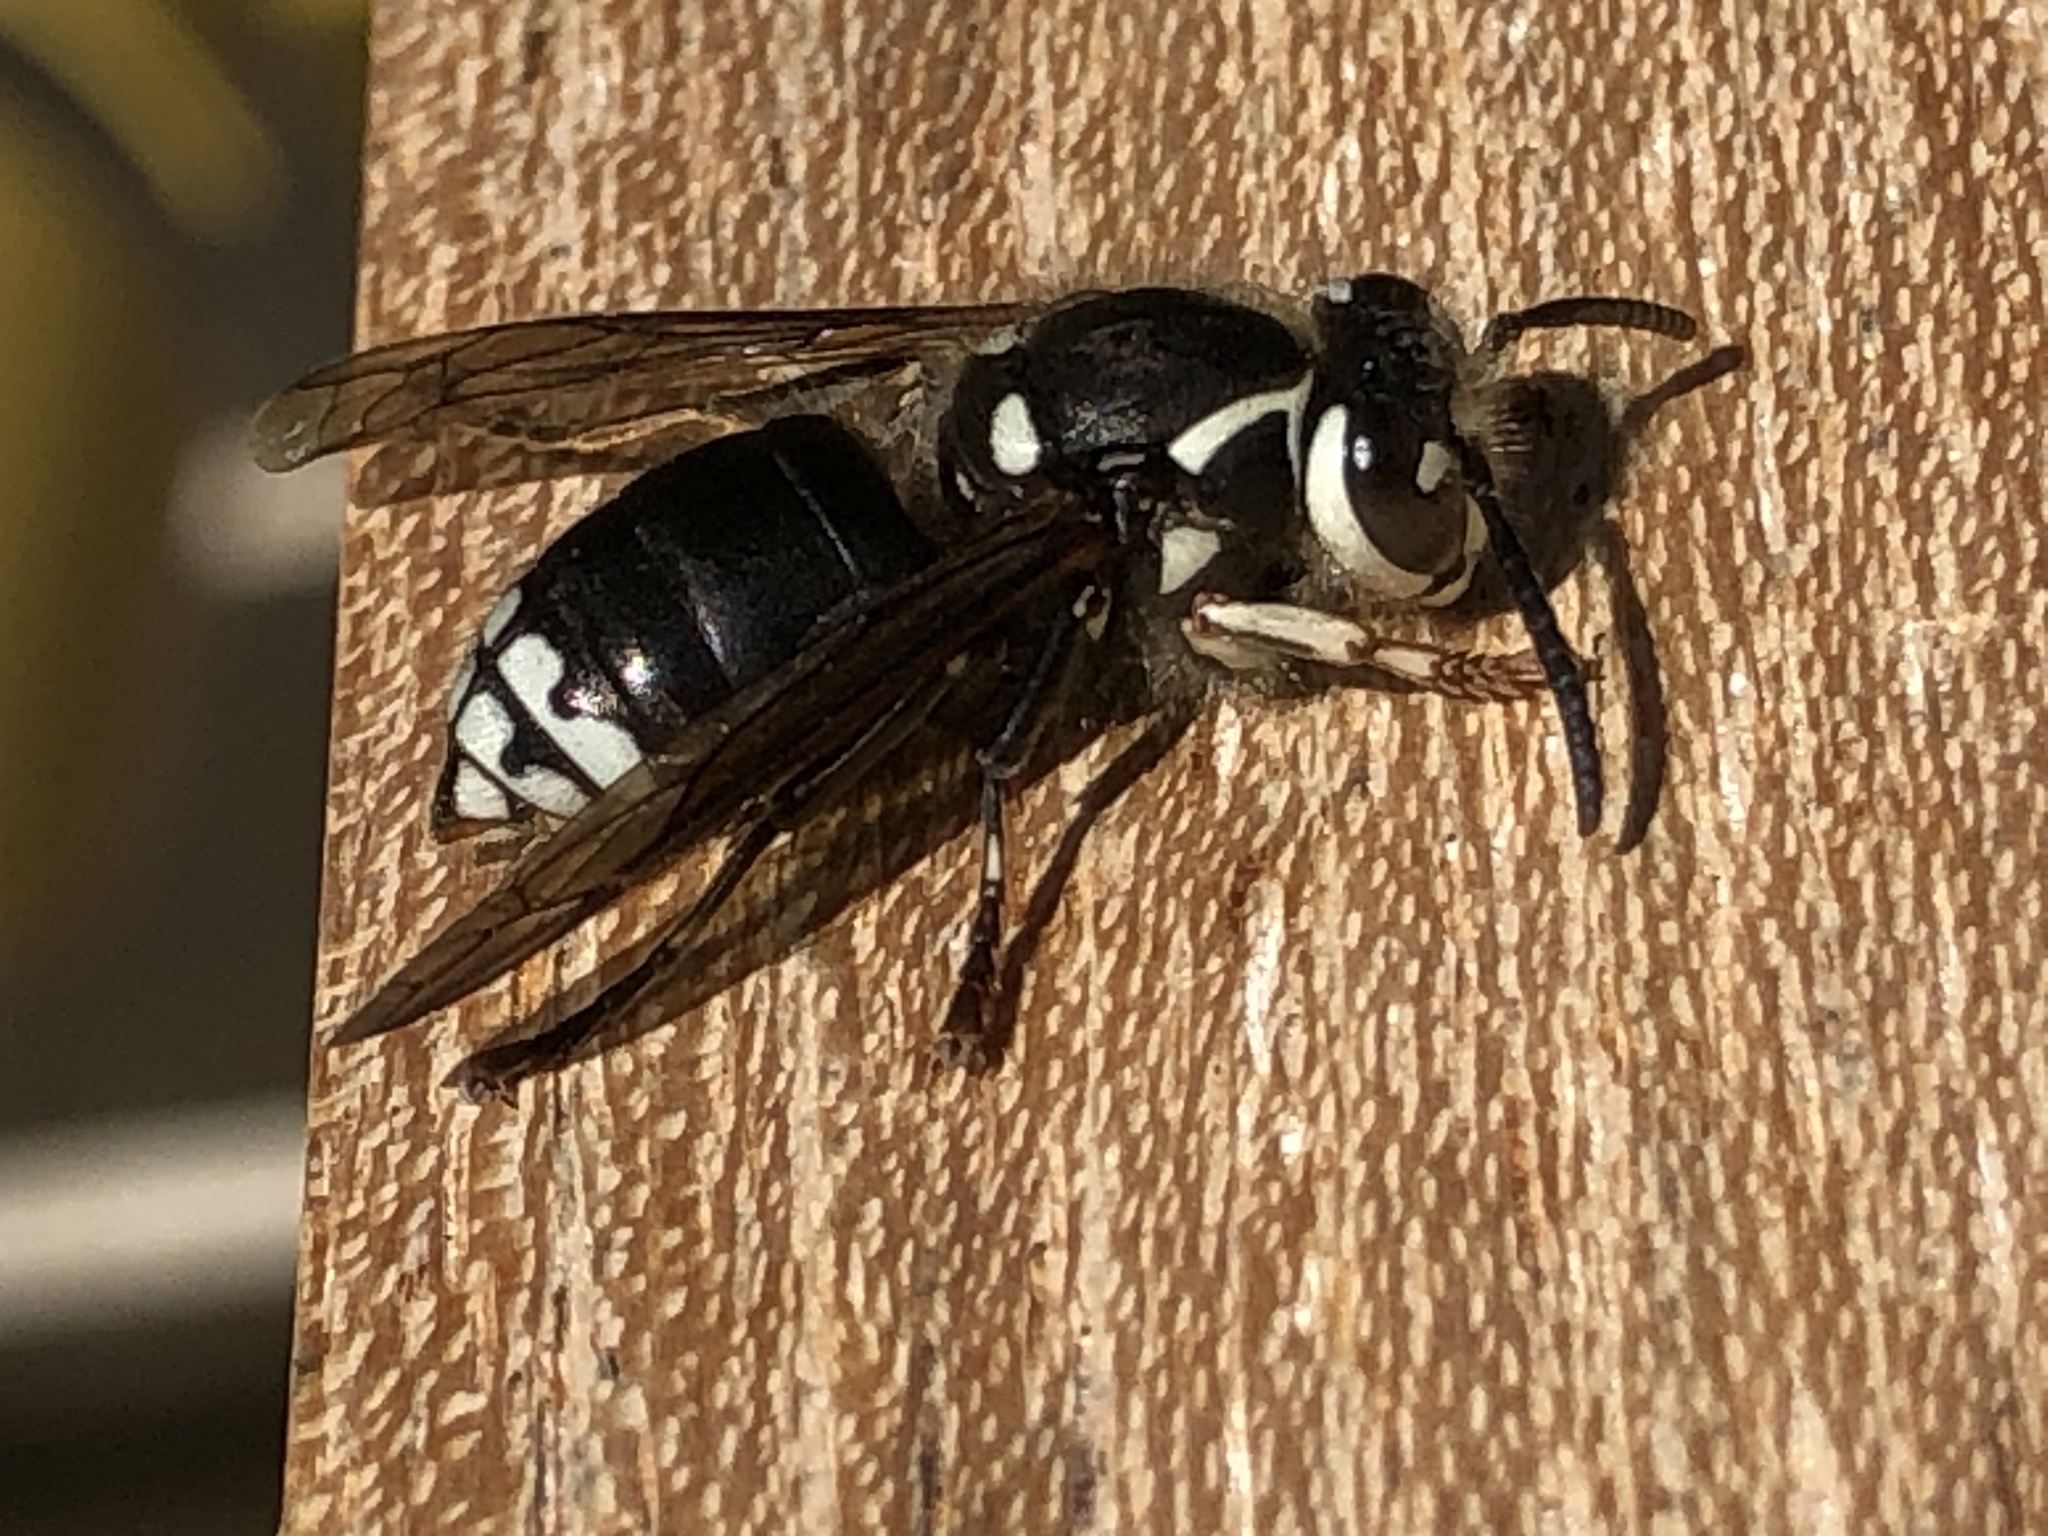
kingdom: Animalia
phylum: Arthropoda
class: Insecta
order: Hymenoptera
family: Vespidae
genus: Dolichovespula
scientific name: Dolichovespula maculata
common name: Bald-faced hornet
